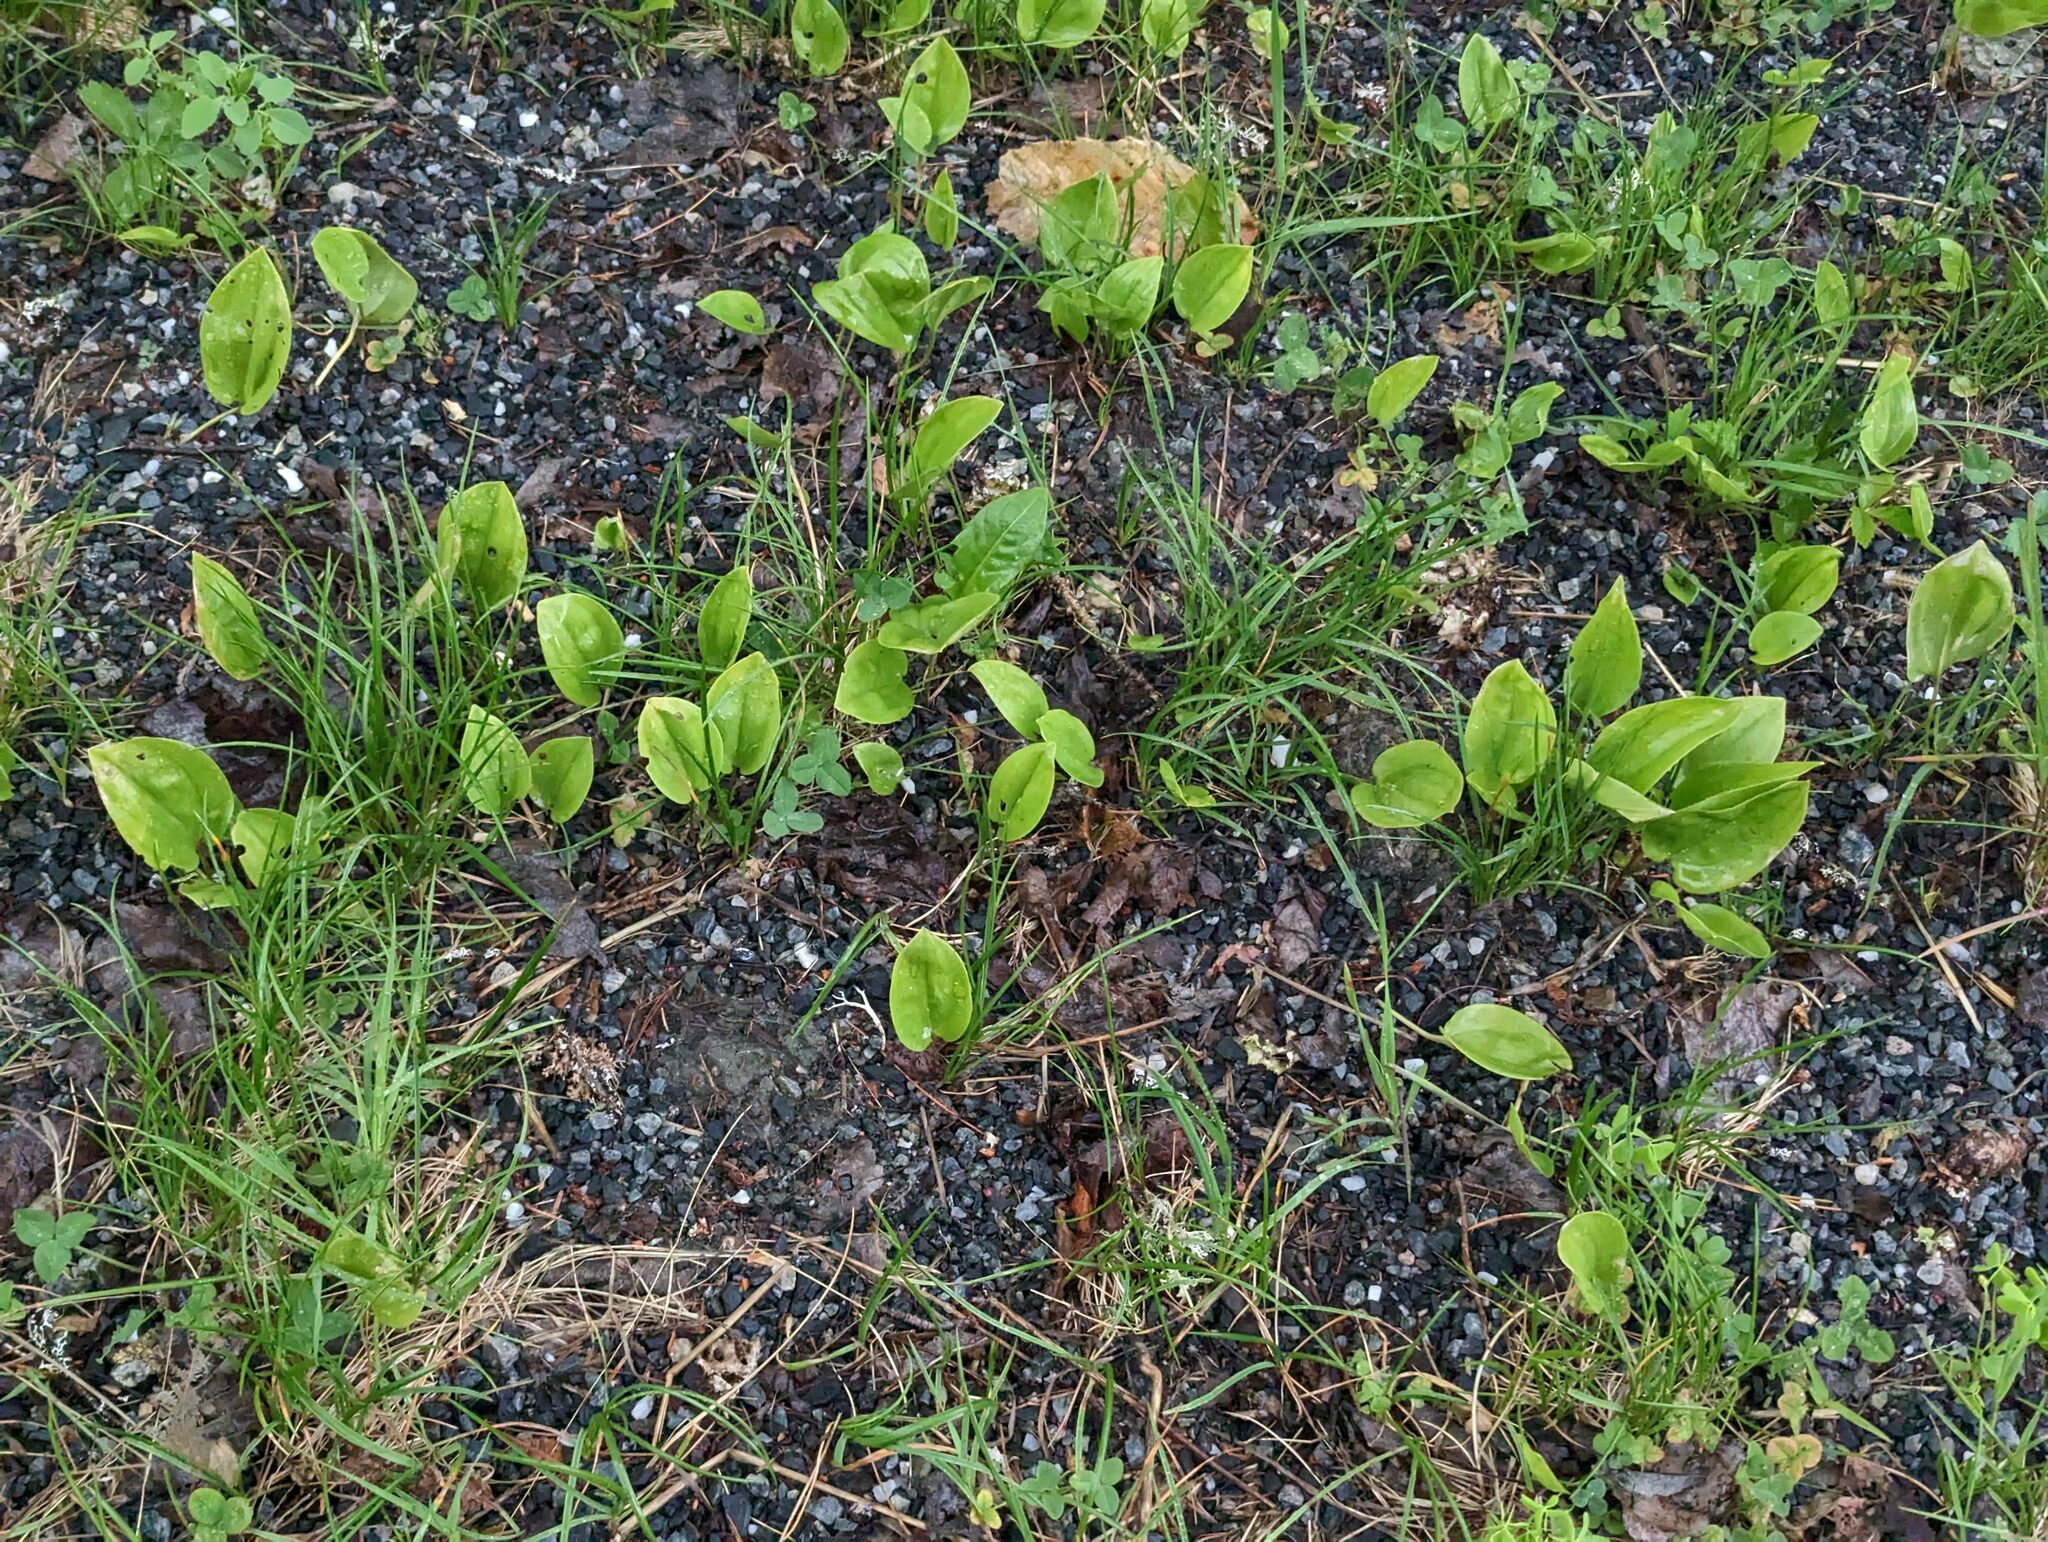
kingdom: Plantae
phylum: Tracheophyta
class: Liliopsida
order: Asparagales
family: Asparagaceae
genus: Maianthemum
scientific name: Maianthemum canadense
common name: False lily-of-the-valley
